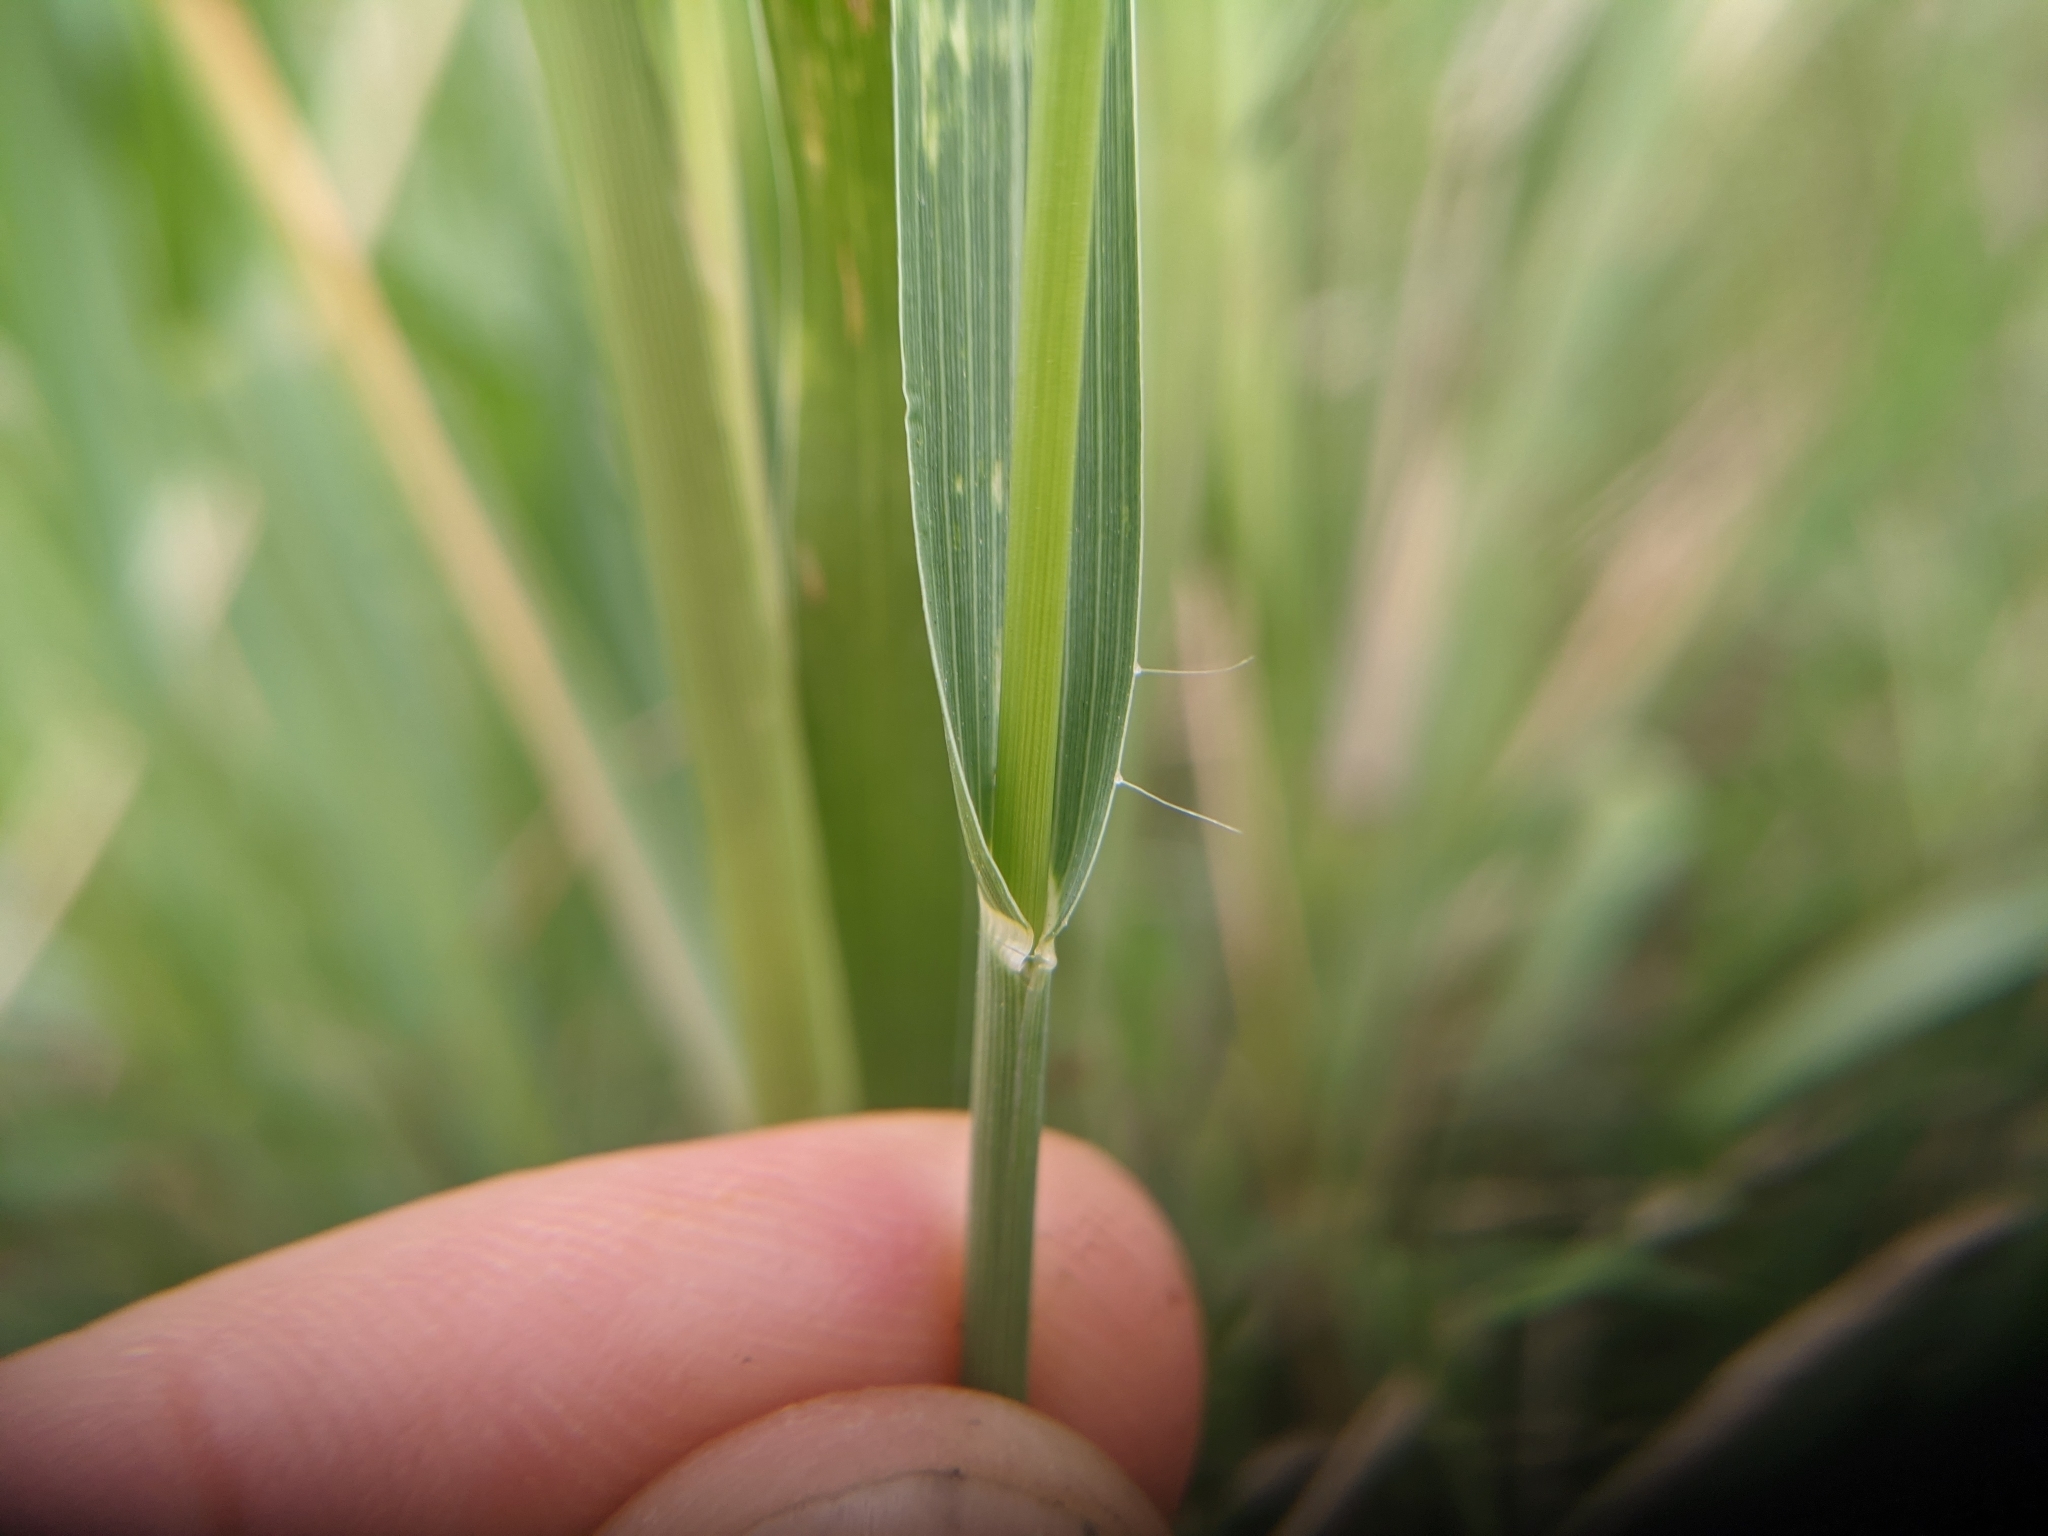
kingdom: Plantae
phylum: Tracheophyta
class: Liliopsida
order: Poales
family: Poaceae
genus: Panicum
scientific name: Panicum coloratum
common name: Kleingrass
